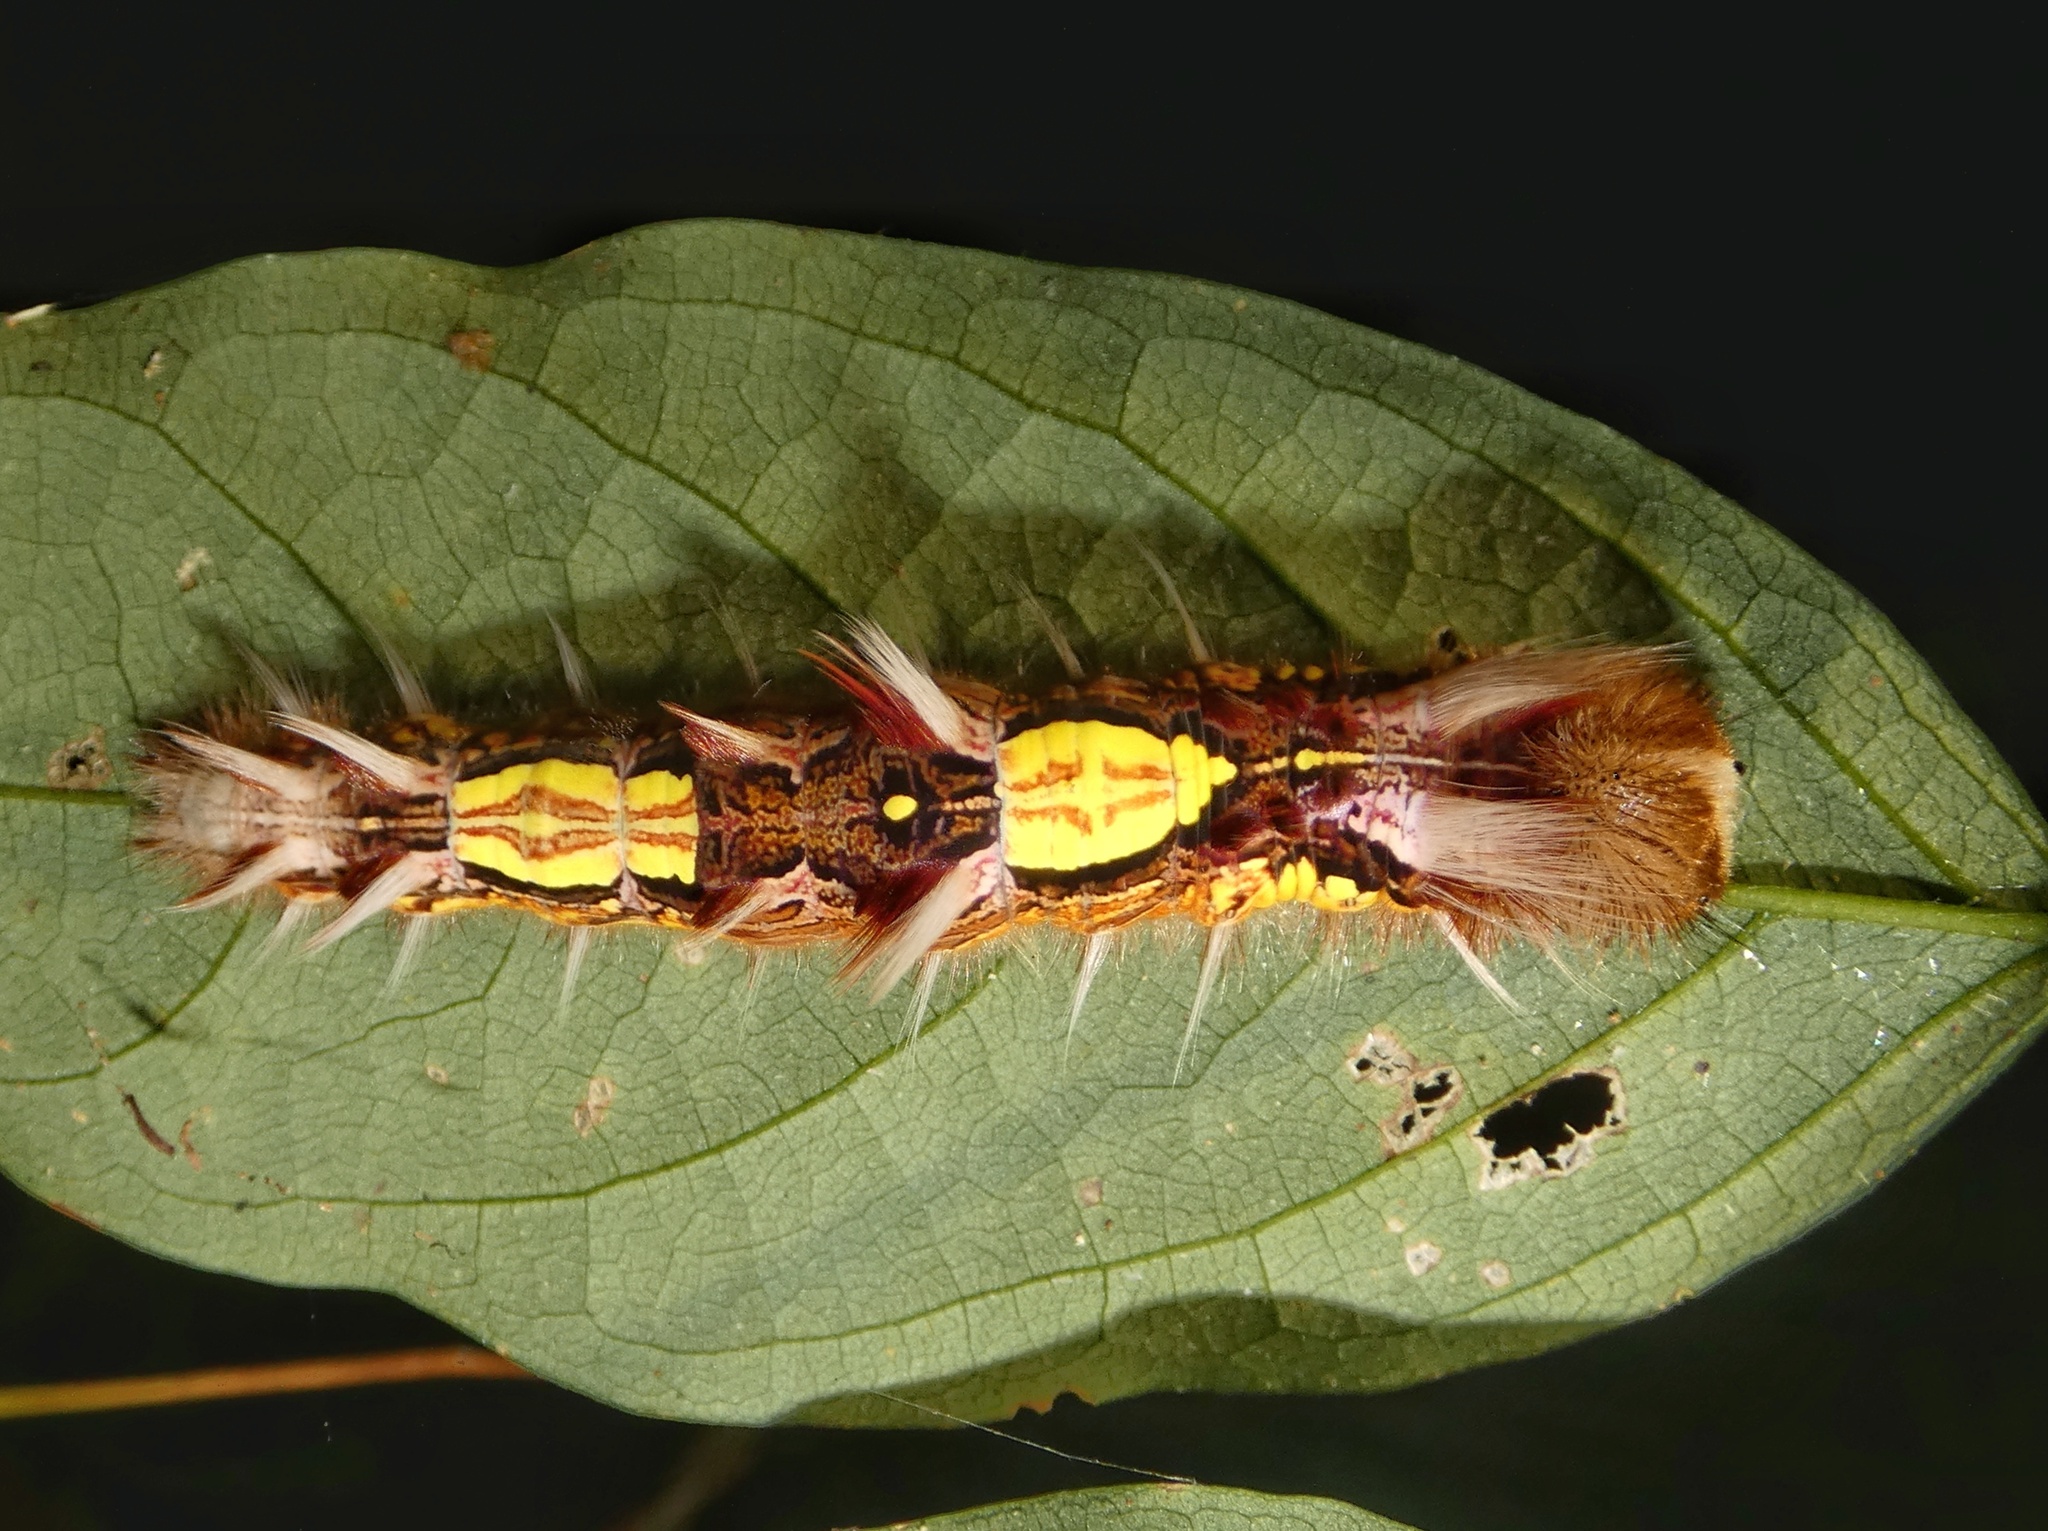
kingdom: Animalia
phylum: Arthropoda
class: Insecta
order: Lepidoptera
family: Nymphalidae
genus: Morpho
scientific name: Morpho helenor
